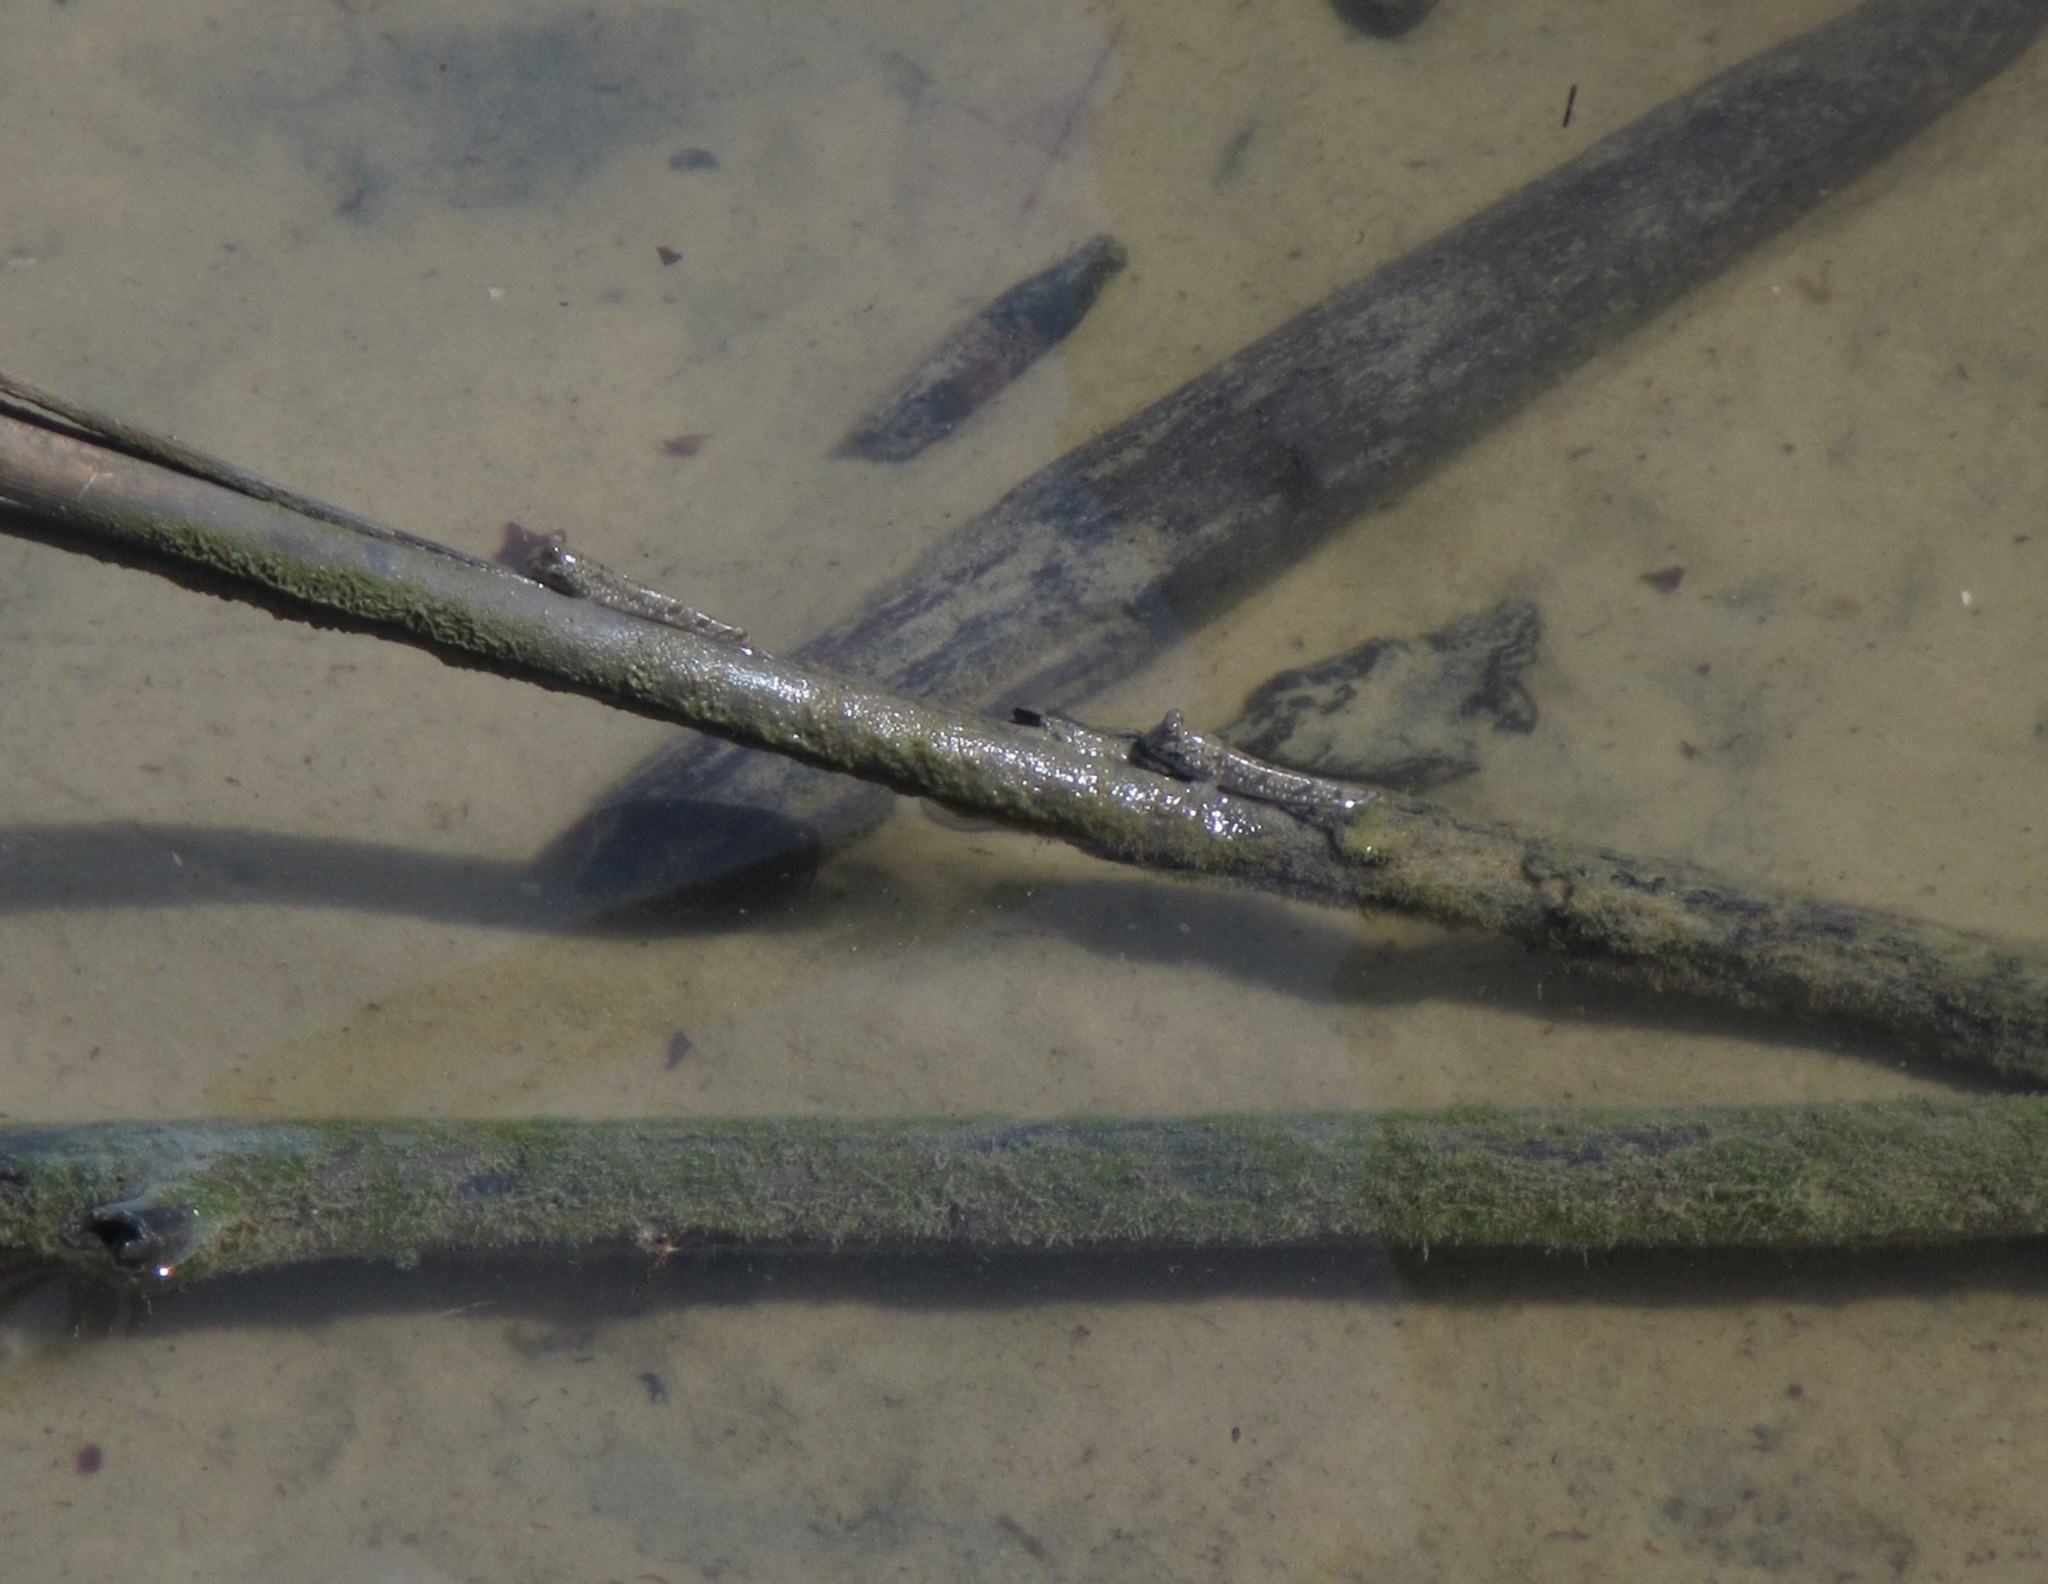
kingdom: Animalia
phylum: Chordata
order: Perciformes
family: Gobiidae
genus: Periophthalmus
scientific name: Periophthalmus barbarus
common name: Atlantic mudskipper
